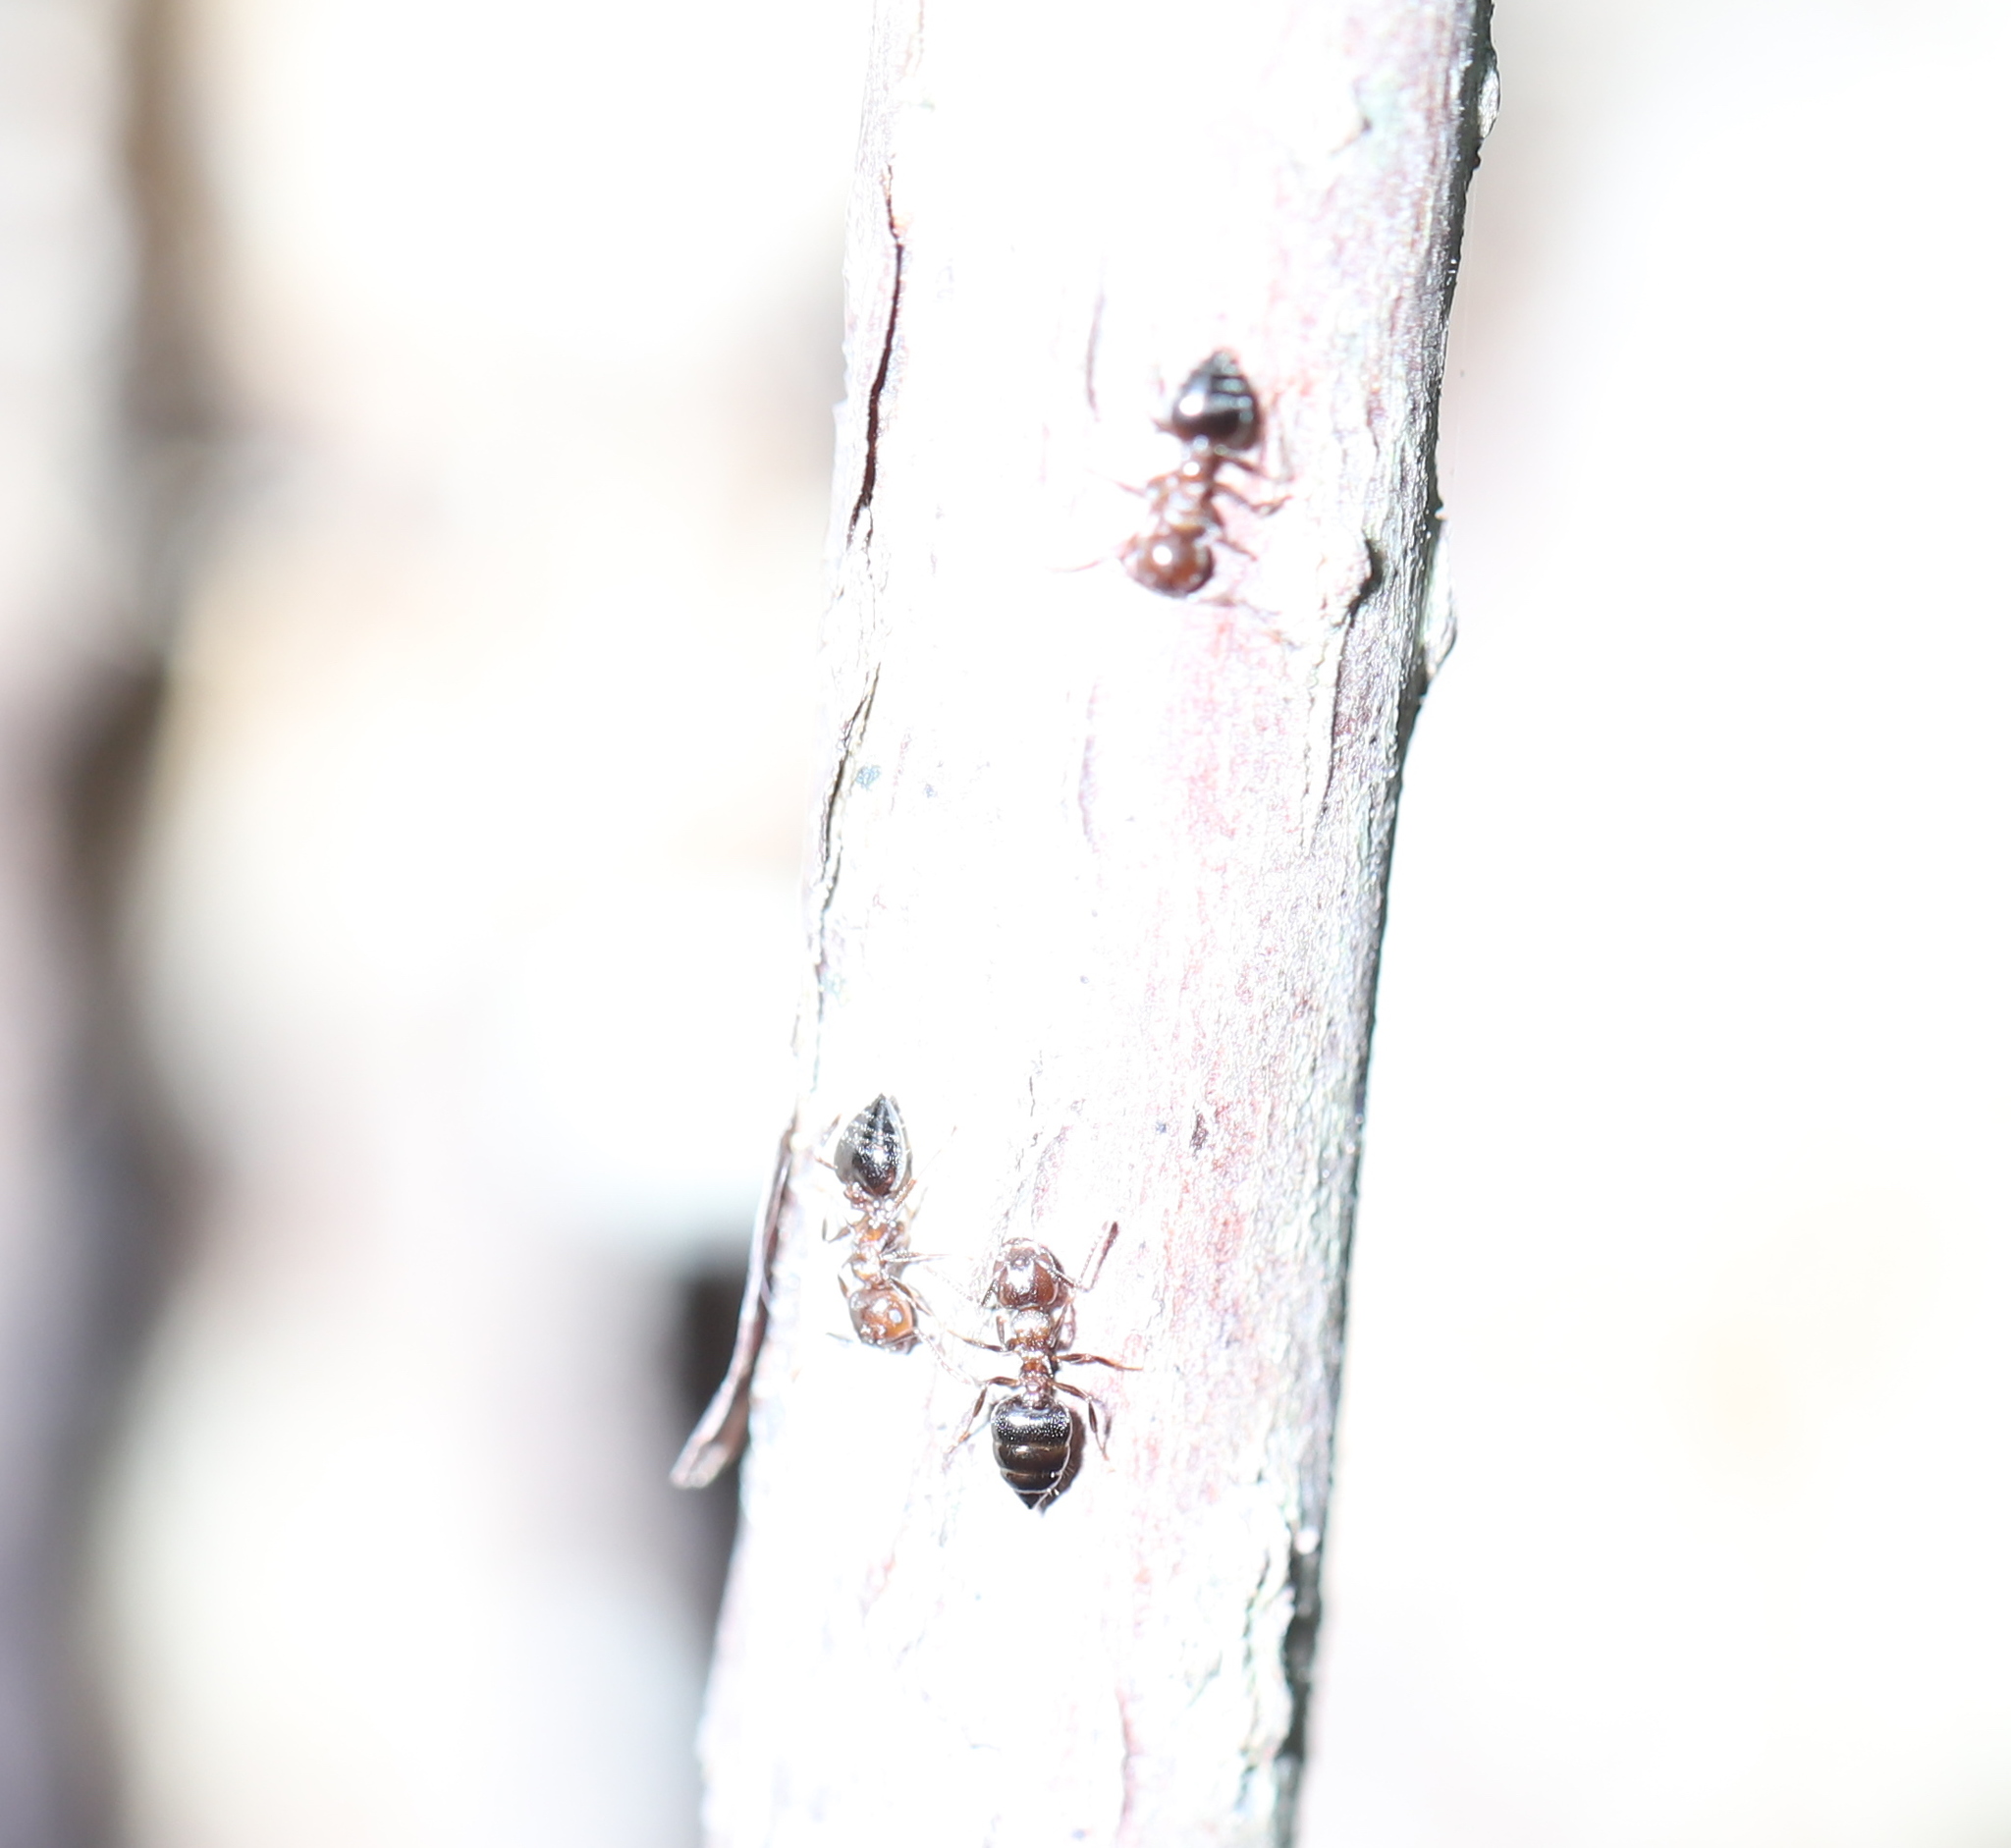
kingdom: Animalia
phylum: Arthropoda
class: Insecta
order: Hymenoptera
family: Formicidae
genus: Crematogaster
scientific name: Crematogaster cerasi
